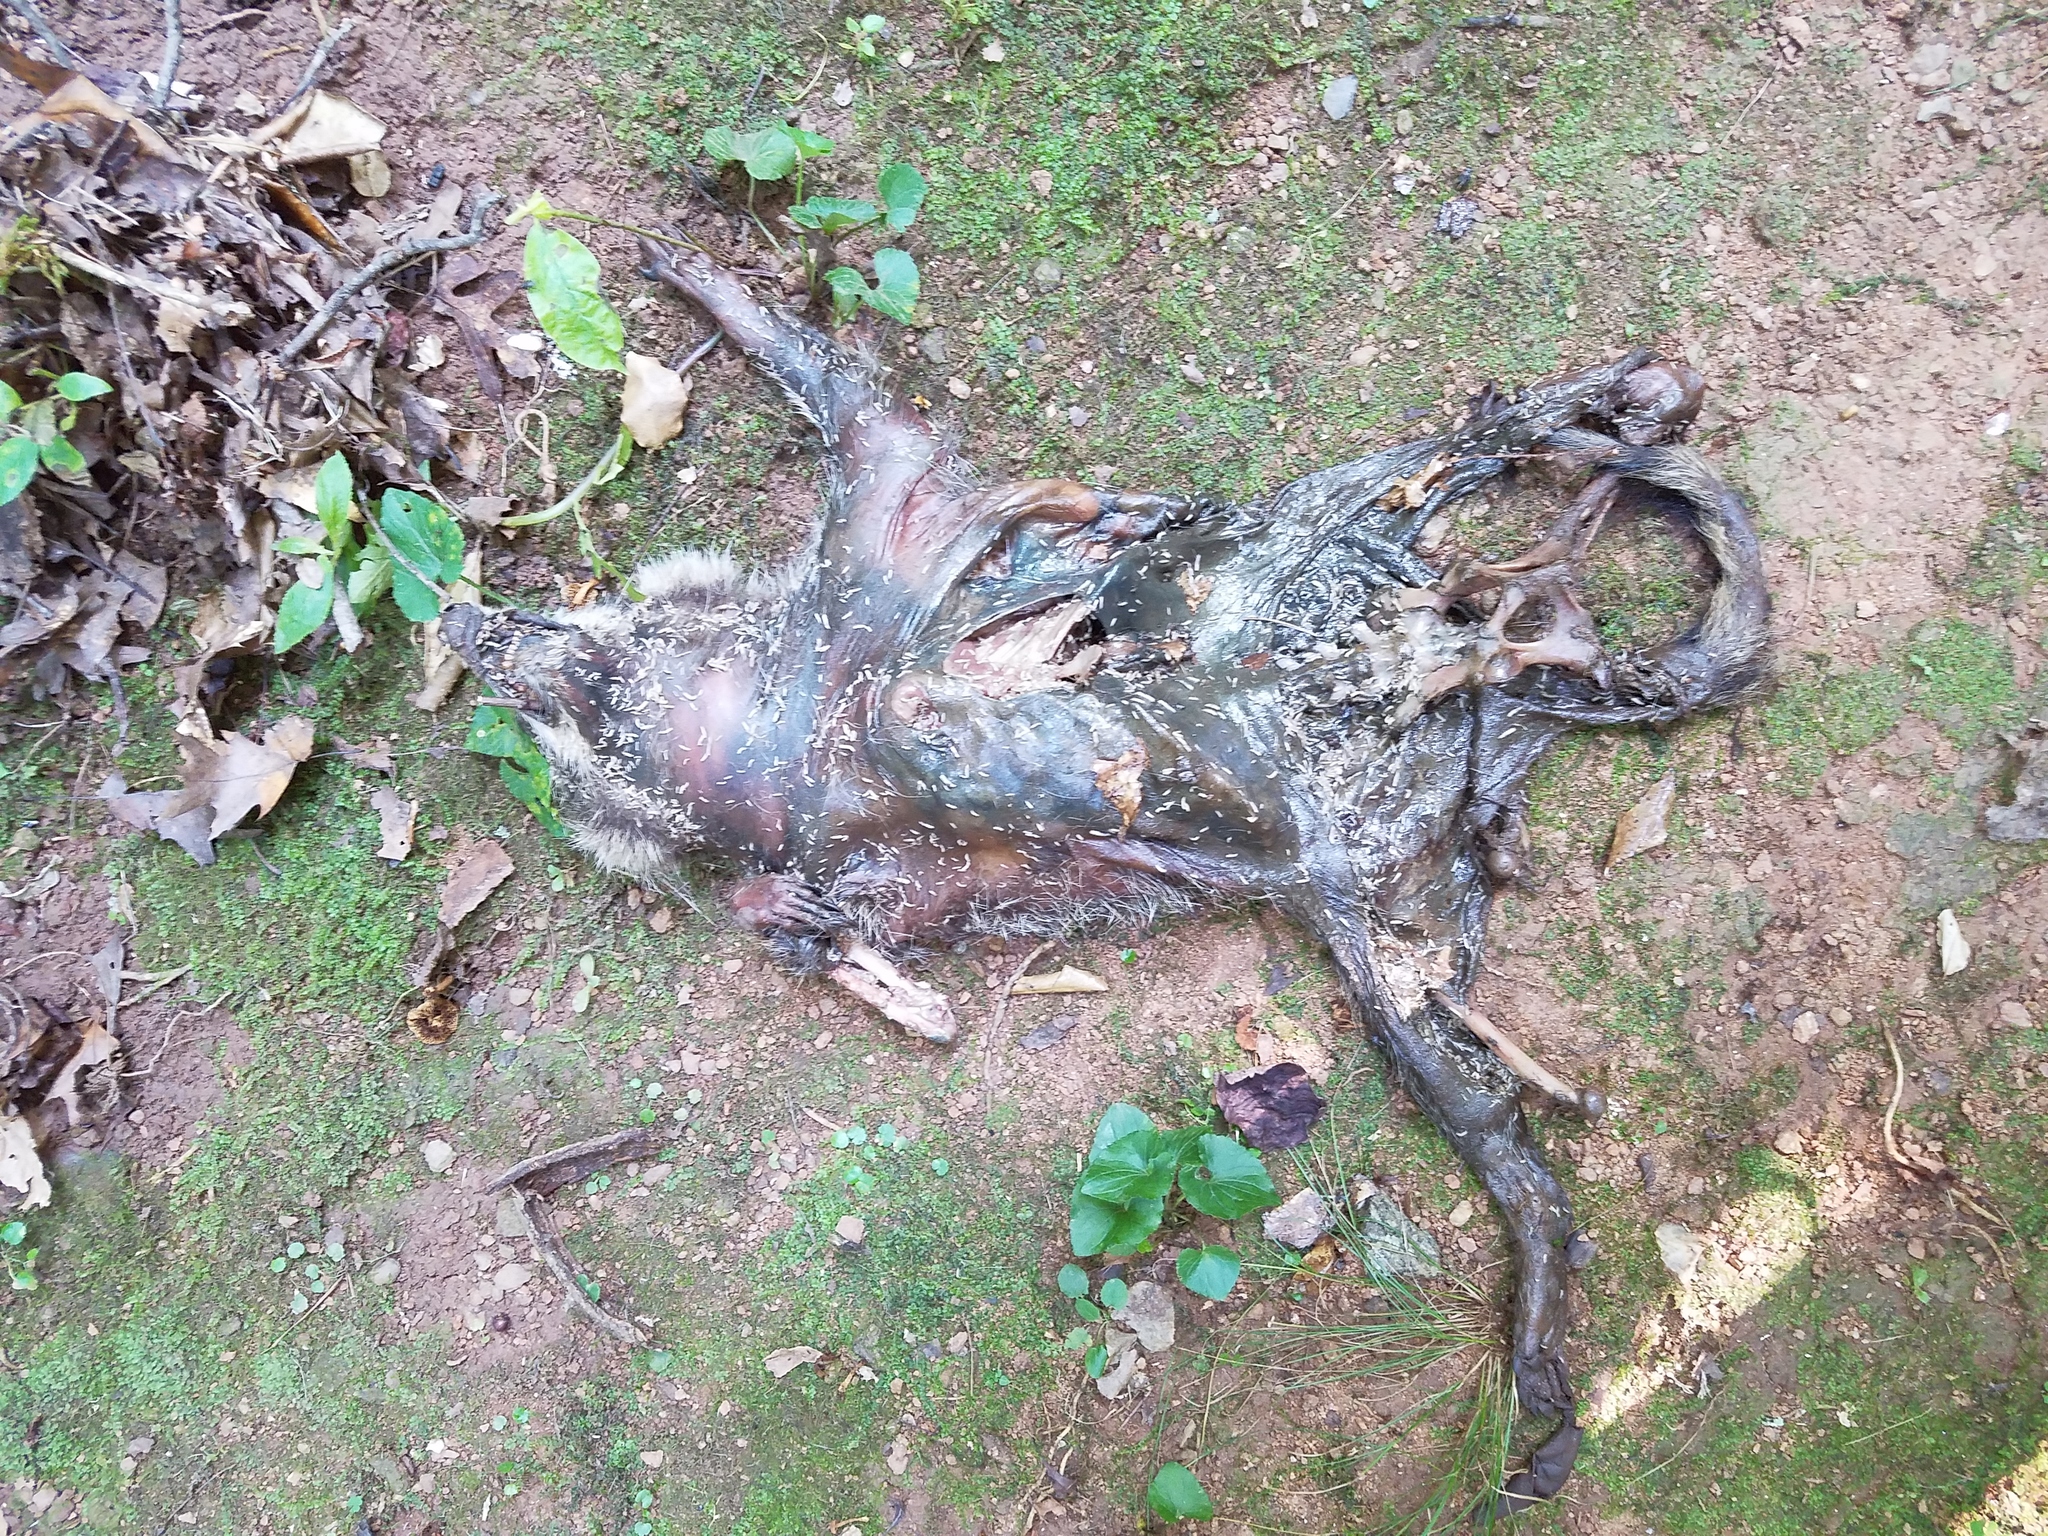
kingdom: Animalia
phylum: Chordata
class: Mammalia
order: Carnivora
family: Procyonidae
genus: Procyon
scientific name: Procyon lotor
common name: Raccoon
